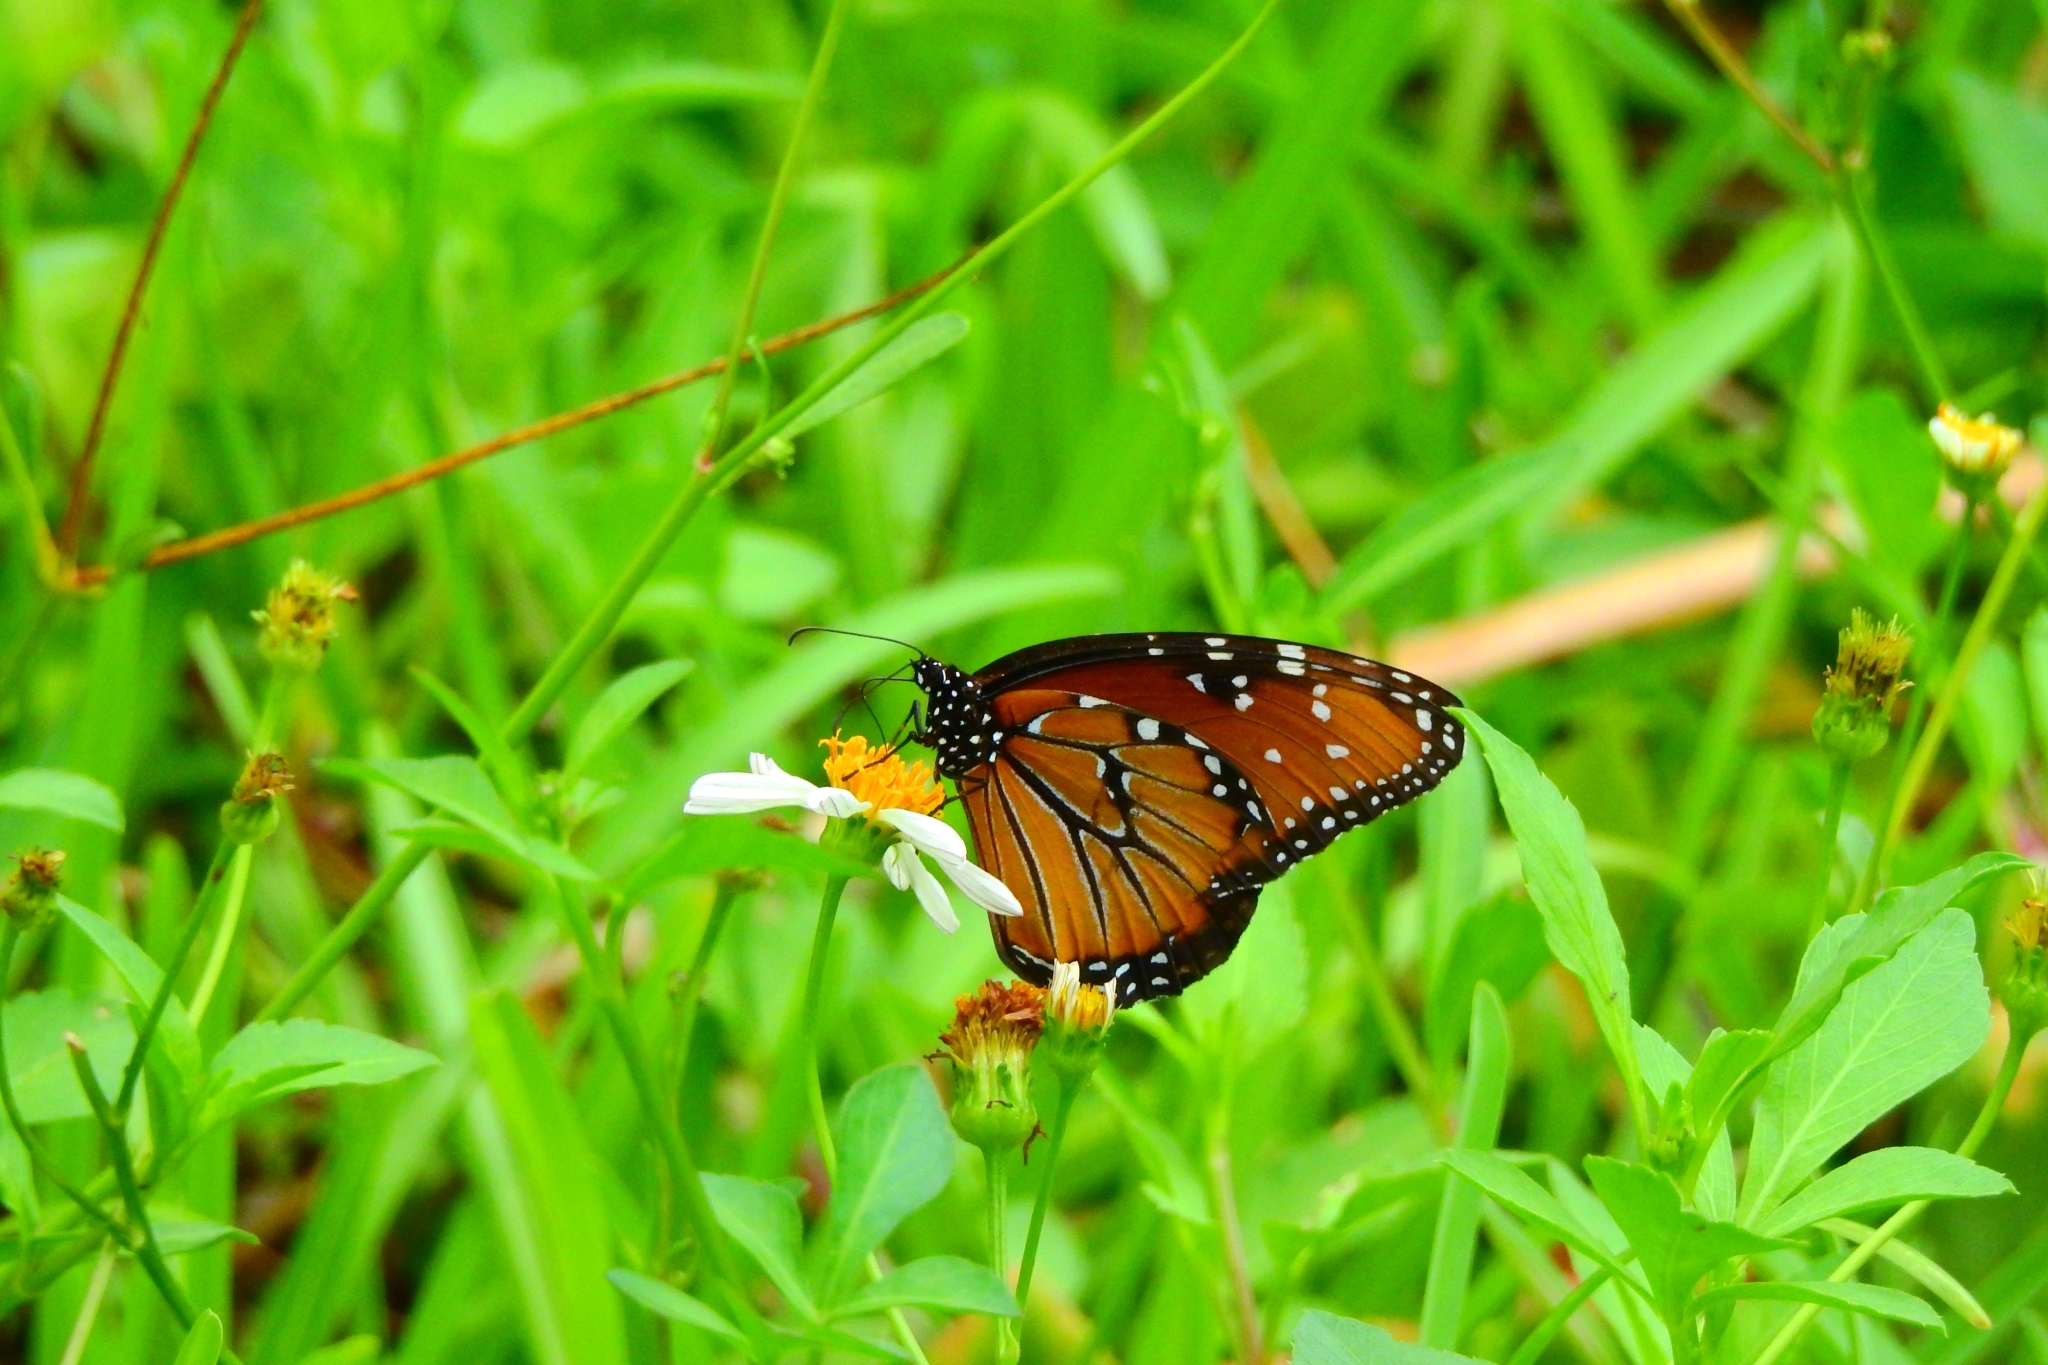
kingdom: Animalia
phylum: Arthropoda
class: Insecta
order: Lepidoptera
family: Nymphalidae
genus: Danaus
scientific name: Danaus gilippus
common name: Queen
